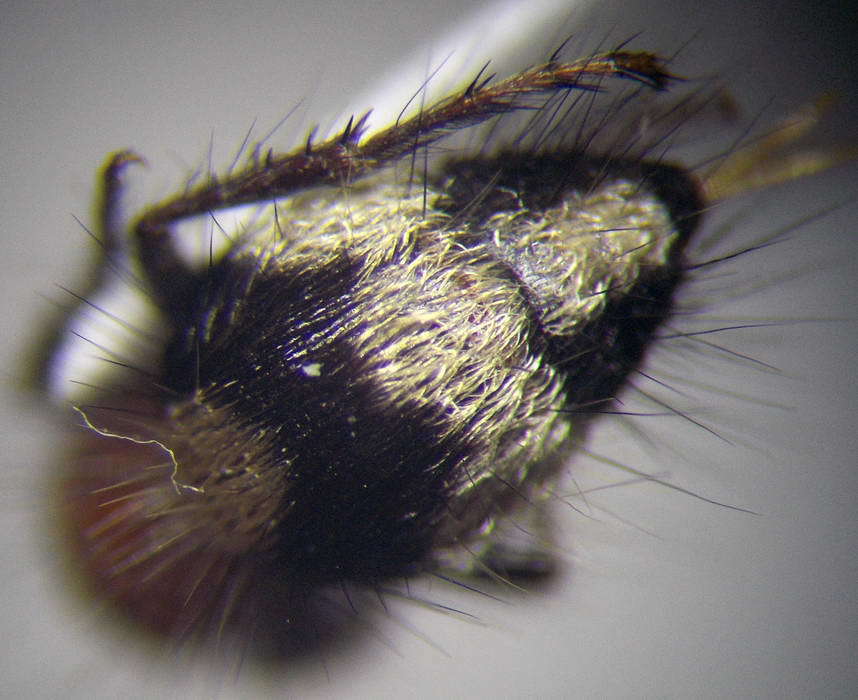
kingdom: Animalia
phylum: Arthropoda
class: Insecta
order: Hymenoptera
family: Mutillidae
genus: Dasylabris
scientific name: Dasylabris regalis
